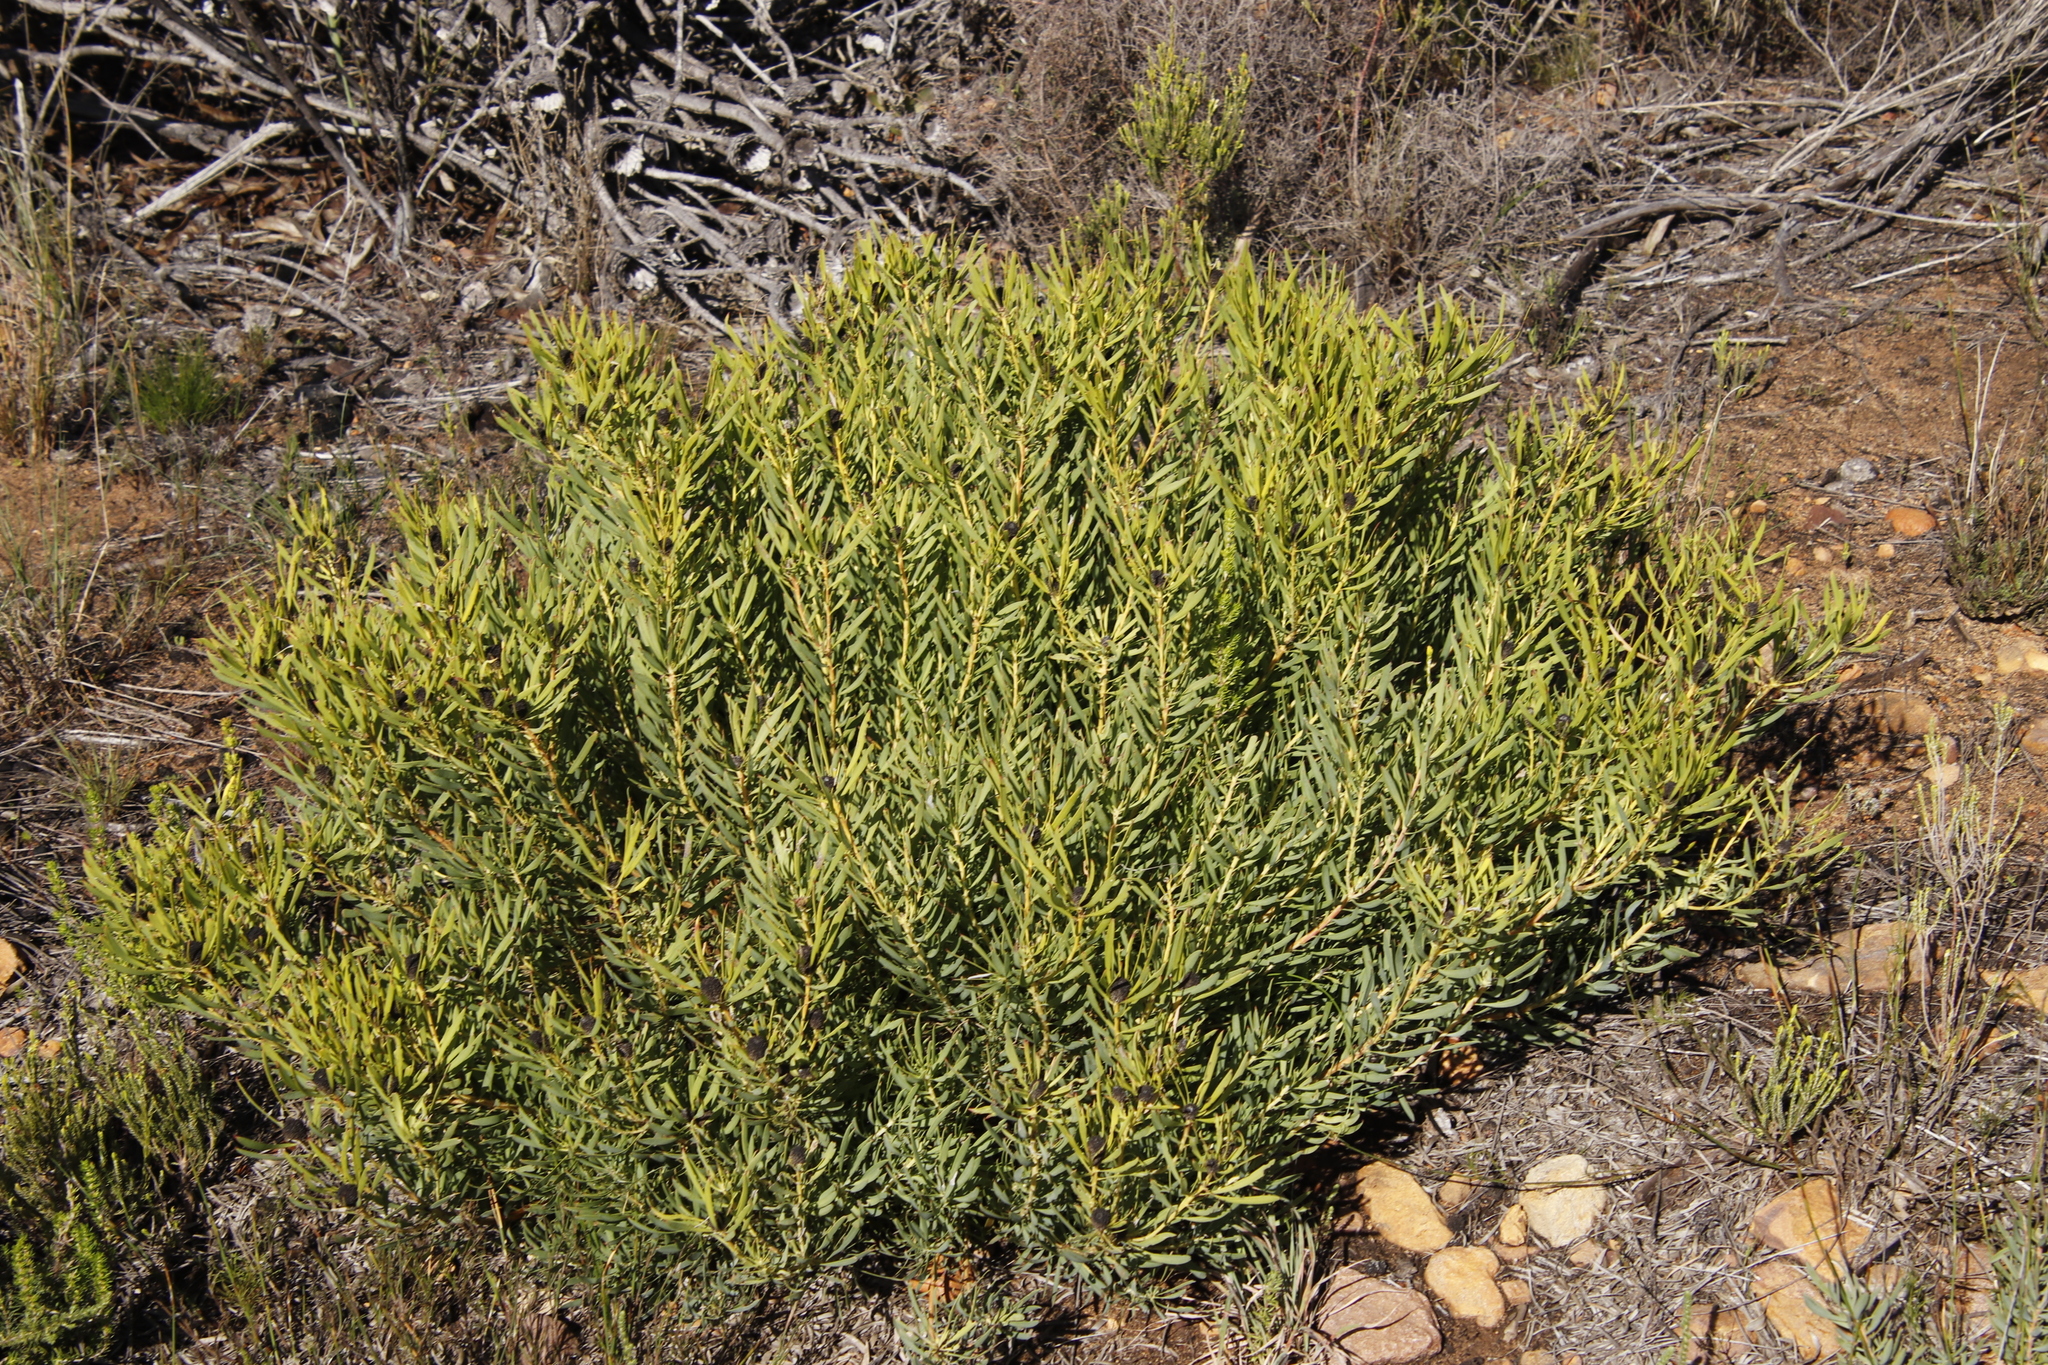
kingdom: Plantae
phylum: Tracheophyta
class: Magnoliopsida
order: Proteales
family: Proteaceae
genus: Leucadendron
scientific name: Leucadendron salignum
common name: Common sunshine conebush
